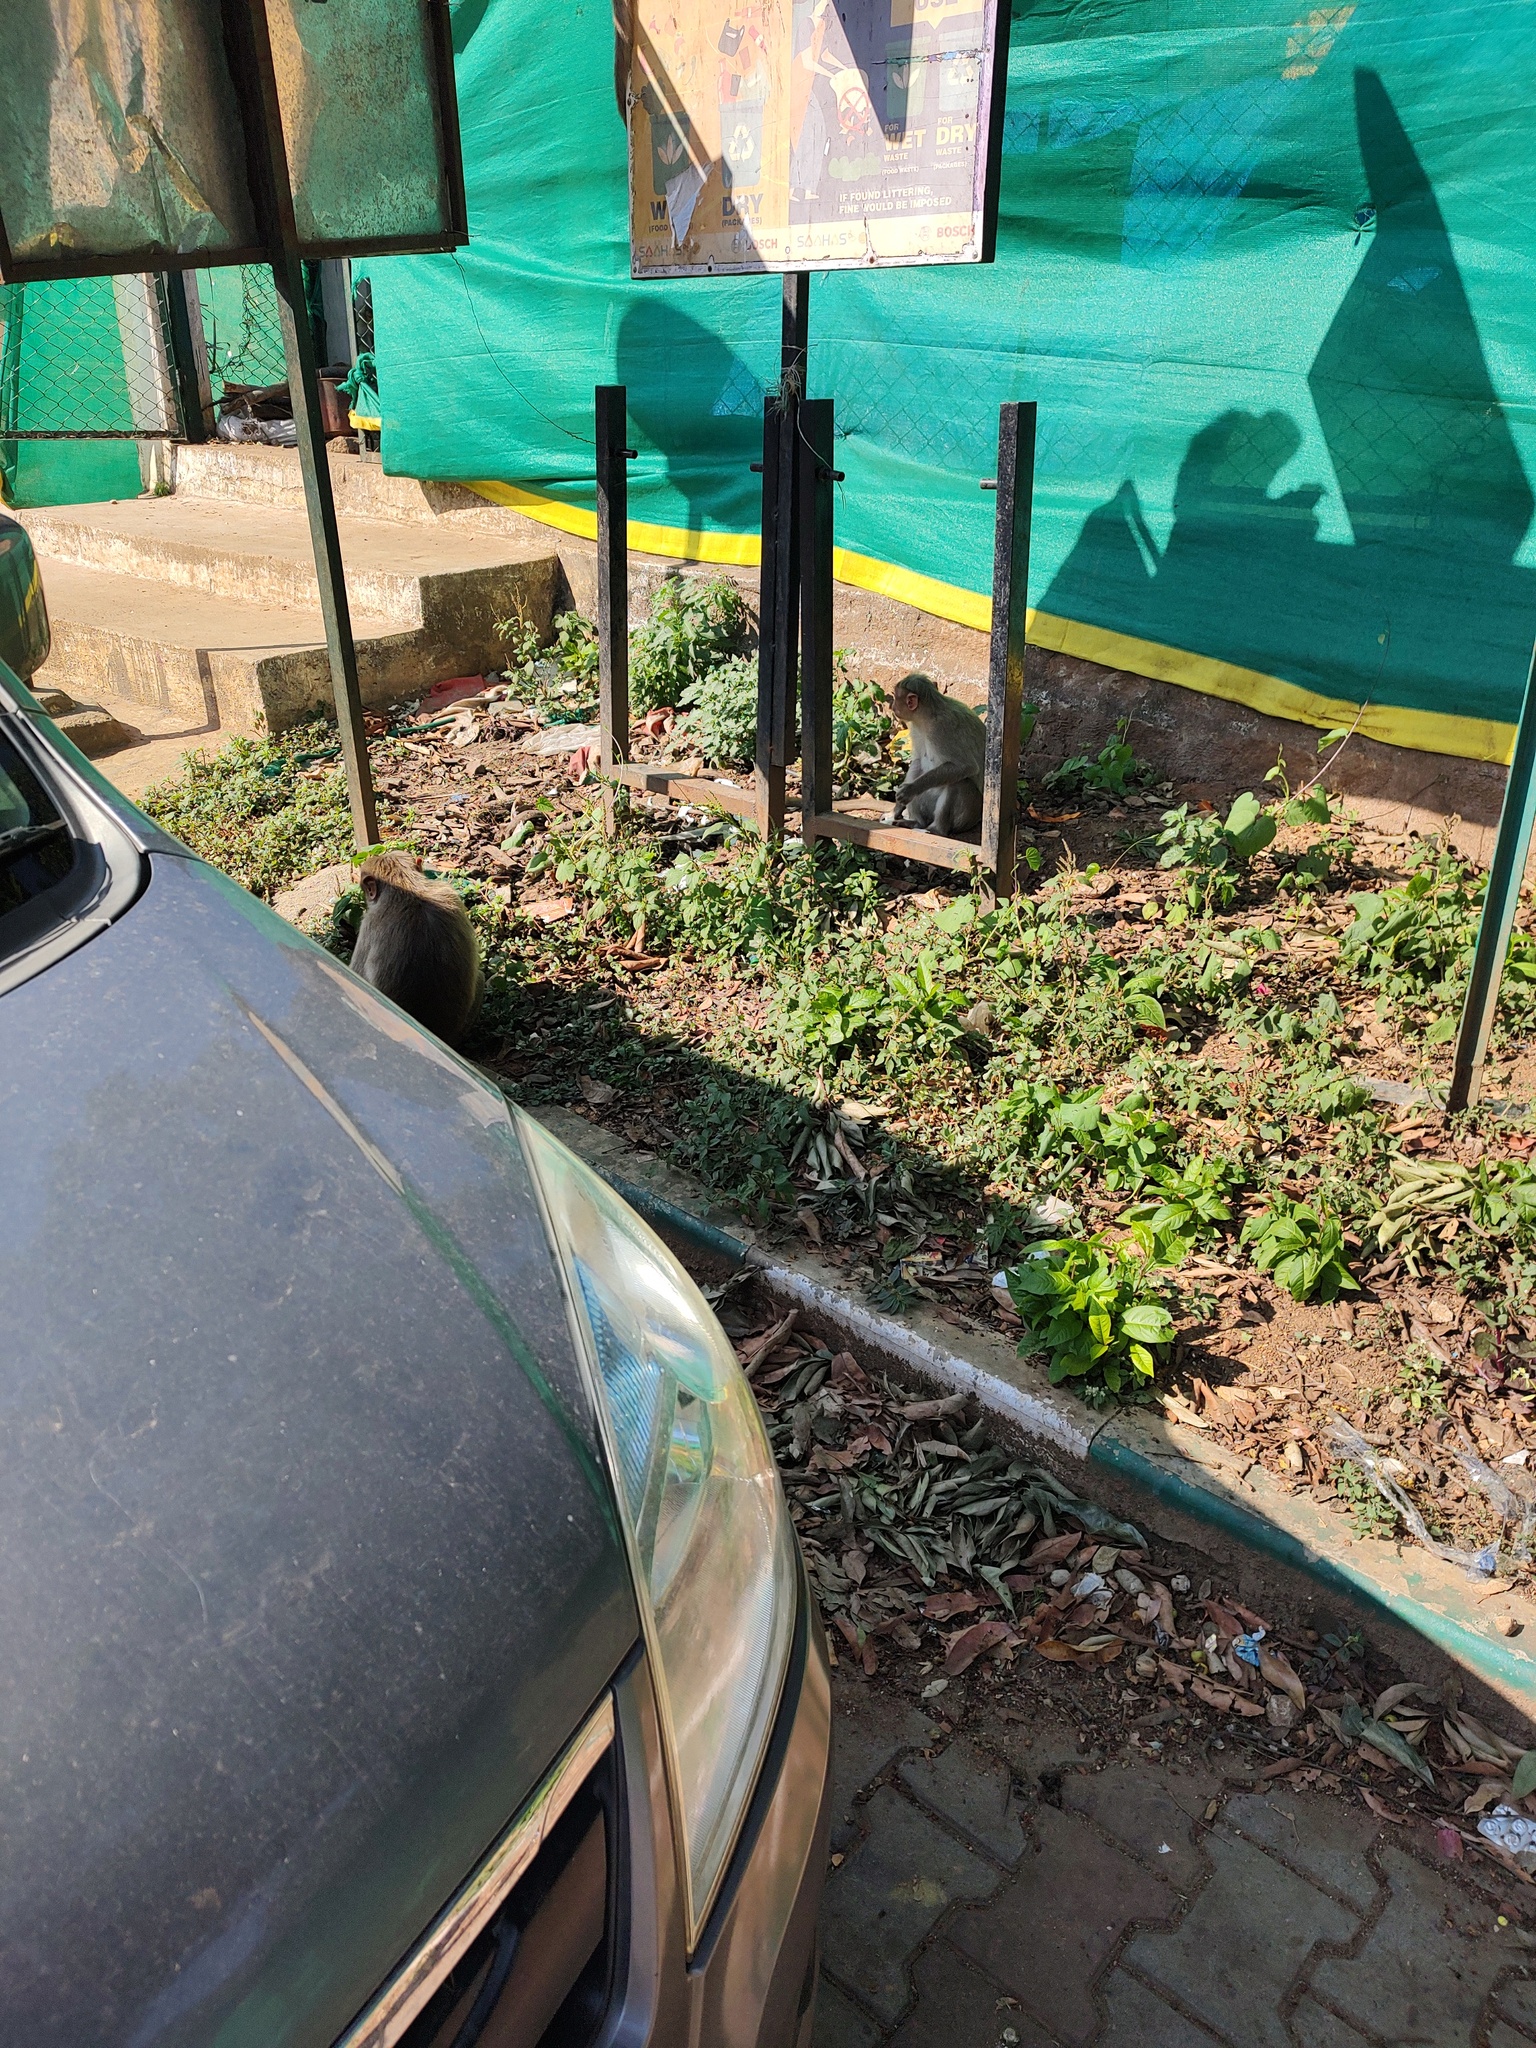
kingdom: Animalia
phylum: Chordata
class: Mammalia
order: Primates
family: Cercopithecidae
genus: Macaca
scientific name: Macaca radiata
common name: Bonnet macaque
